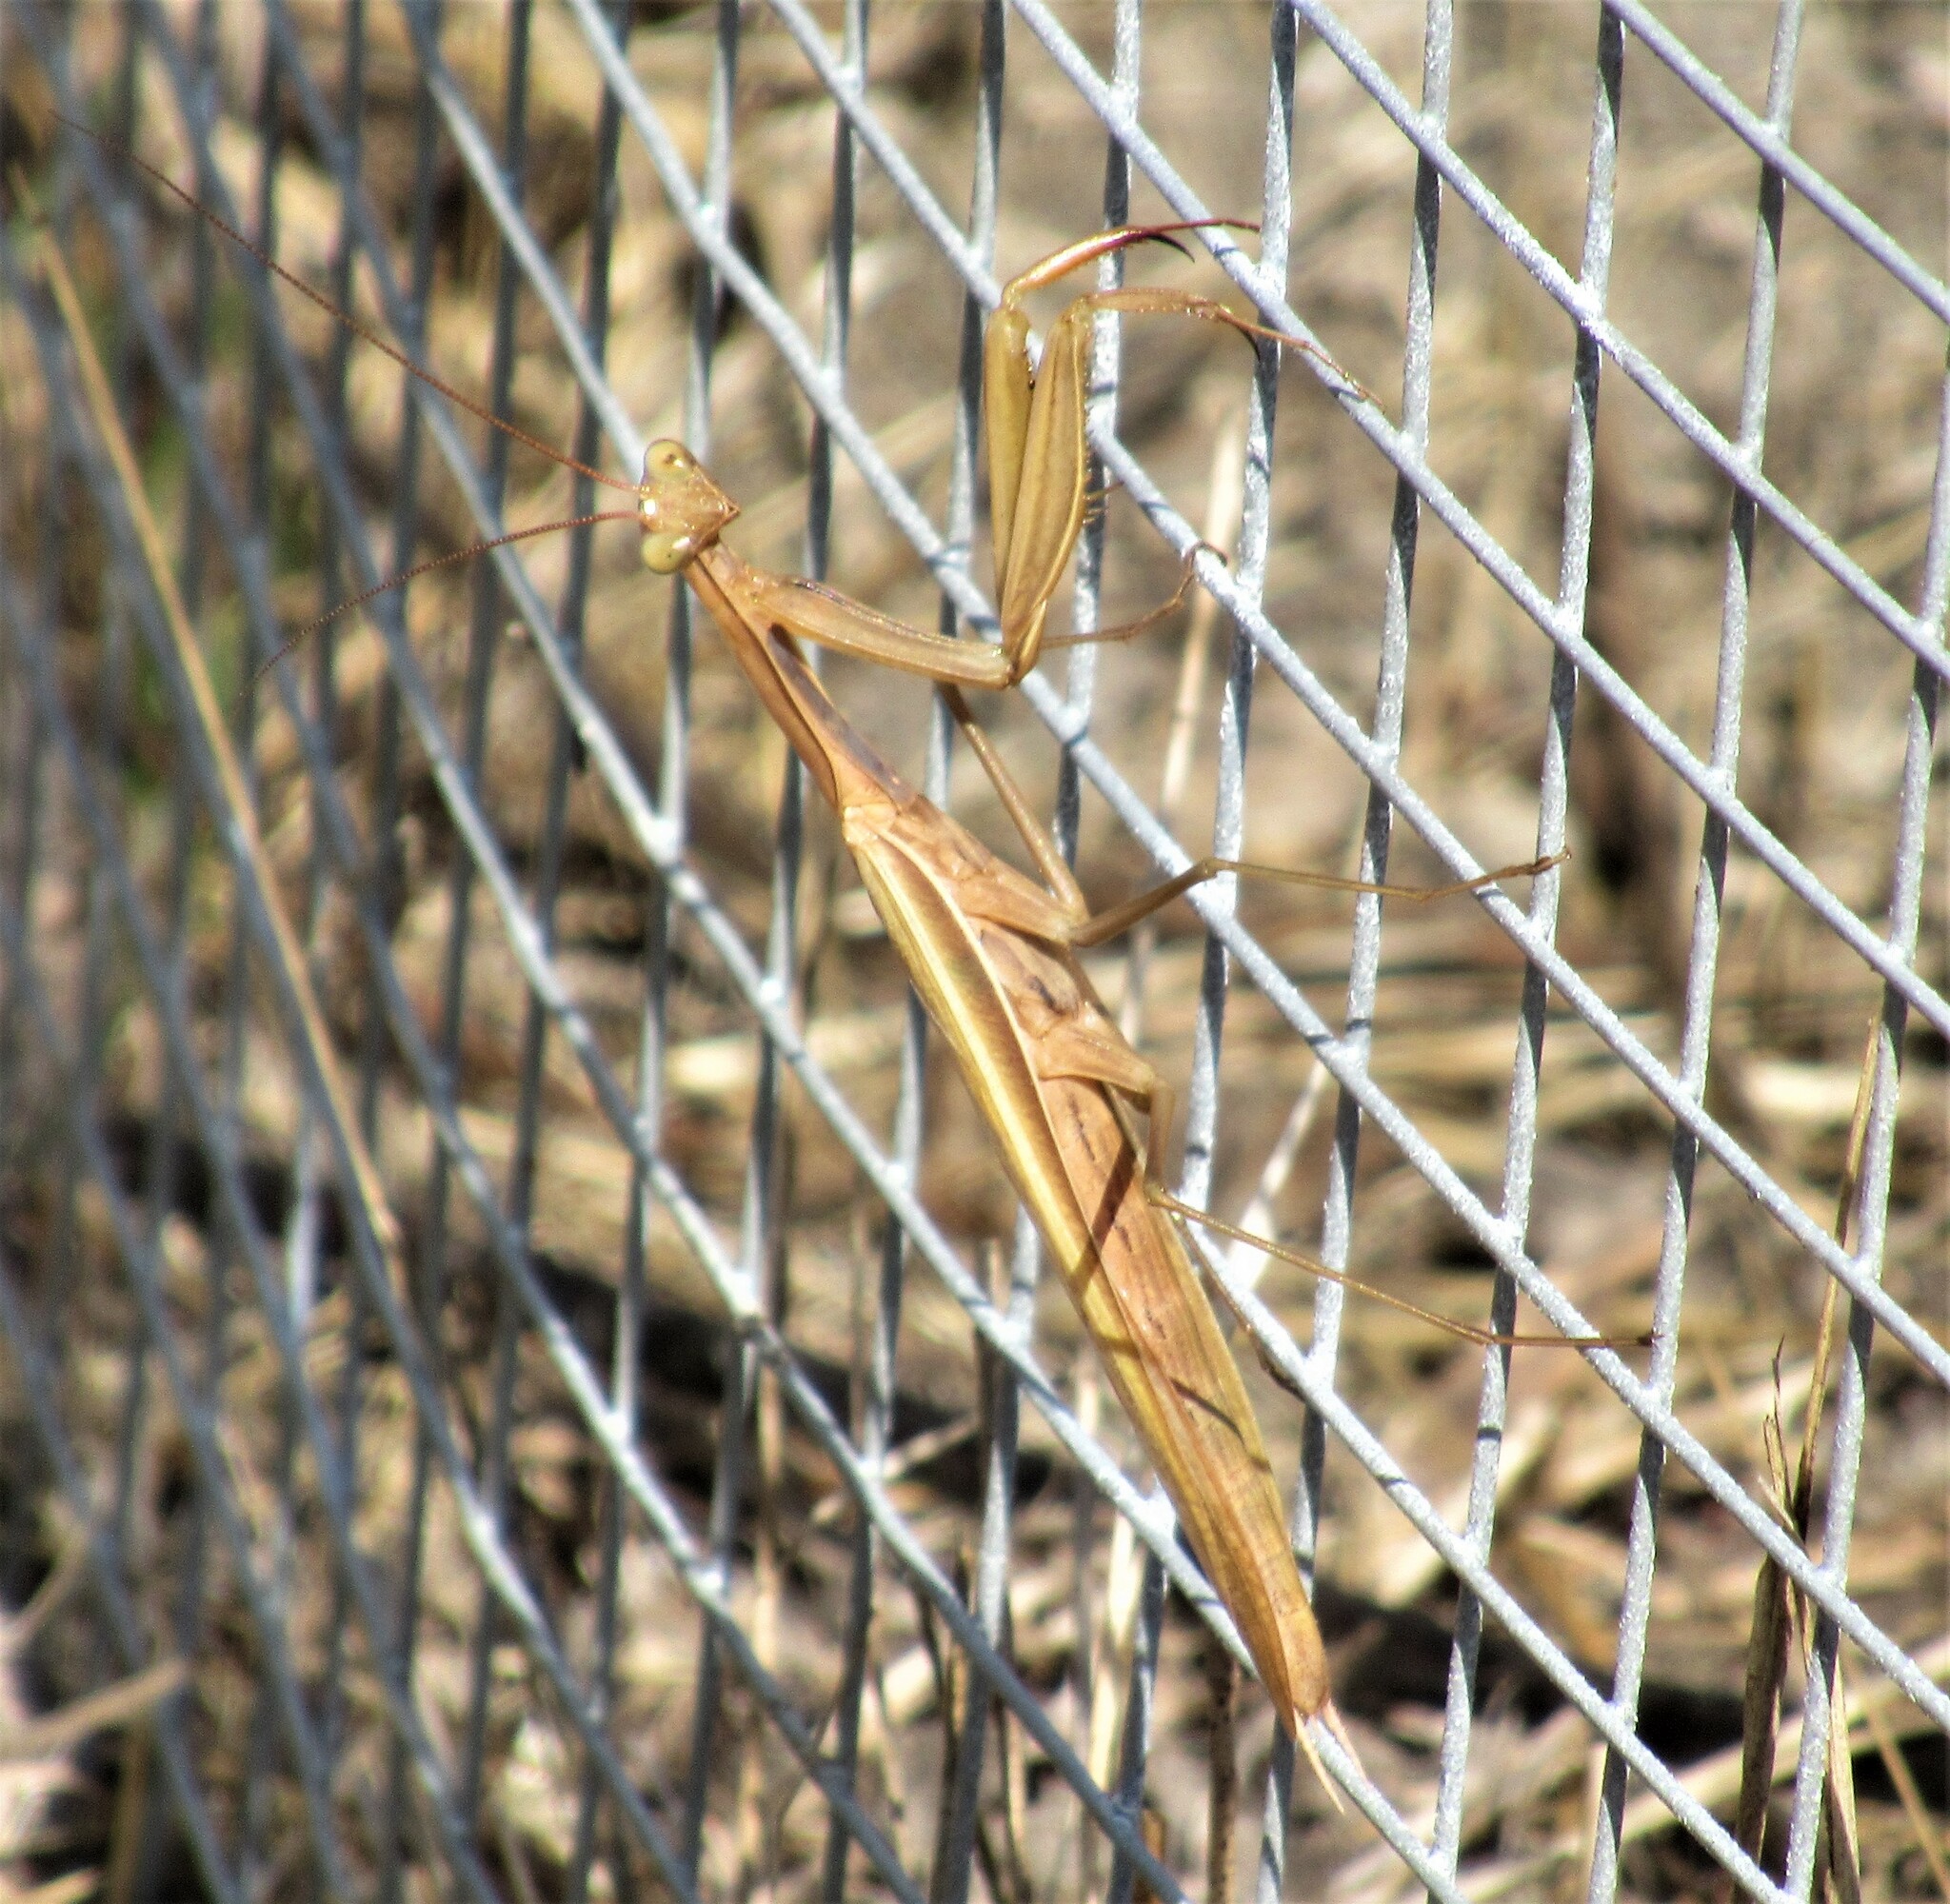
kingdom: Animalia
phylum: Arthropoda
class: Insecta
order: Mantodea
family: Mantidae
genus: Mantis
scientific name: Mantis religiosa
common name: Praying mantis
